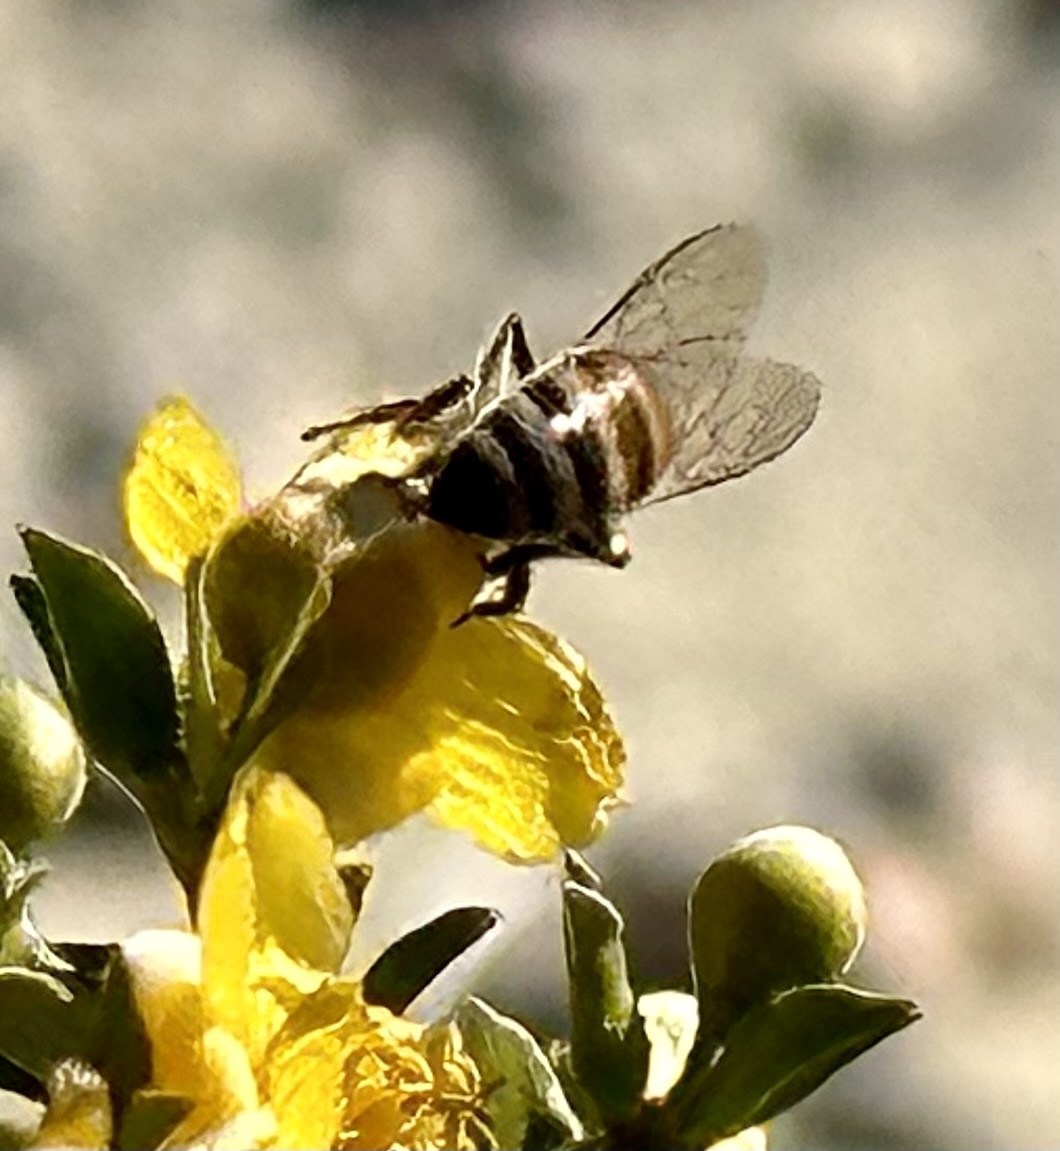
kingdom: Animalia
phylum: Arthropoda
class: Insecta
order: Hymenoptera
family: Apidae
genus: Apis
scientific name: Apis mellifera
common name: Honey bee
